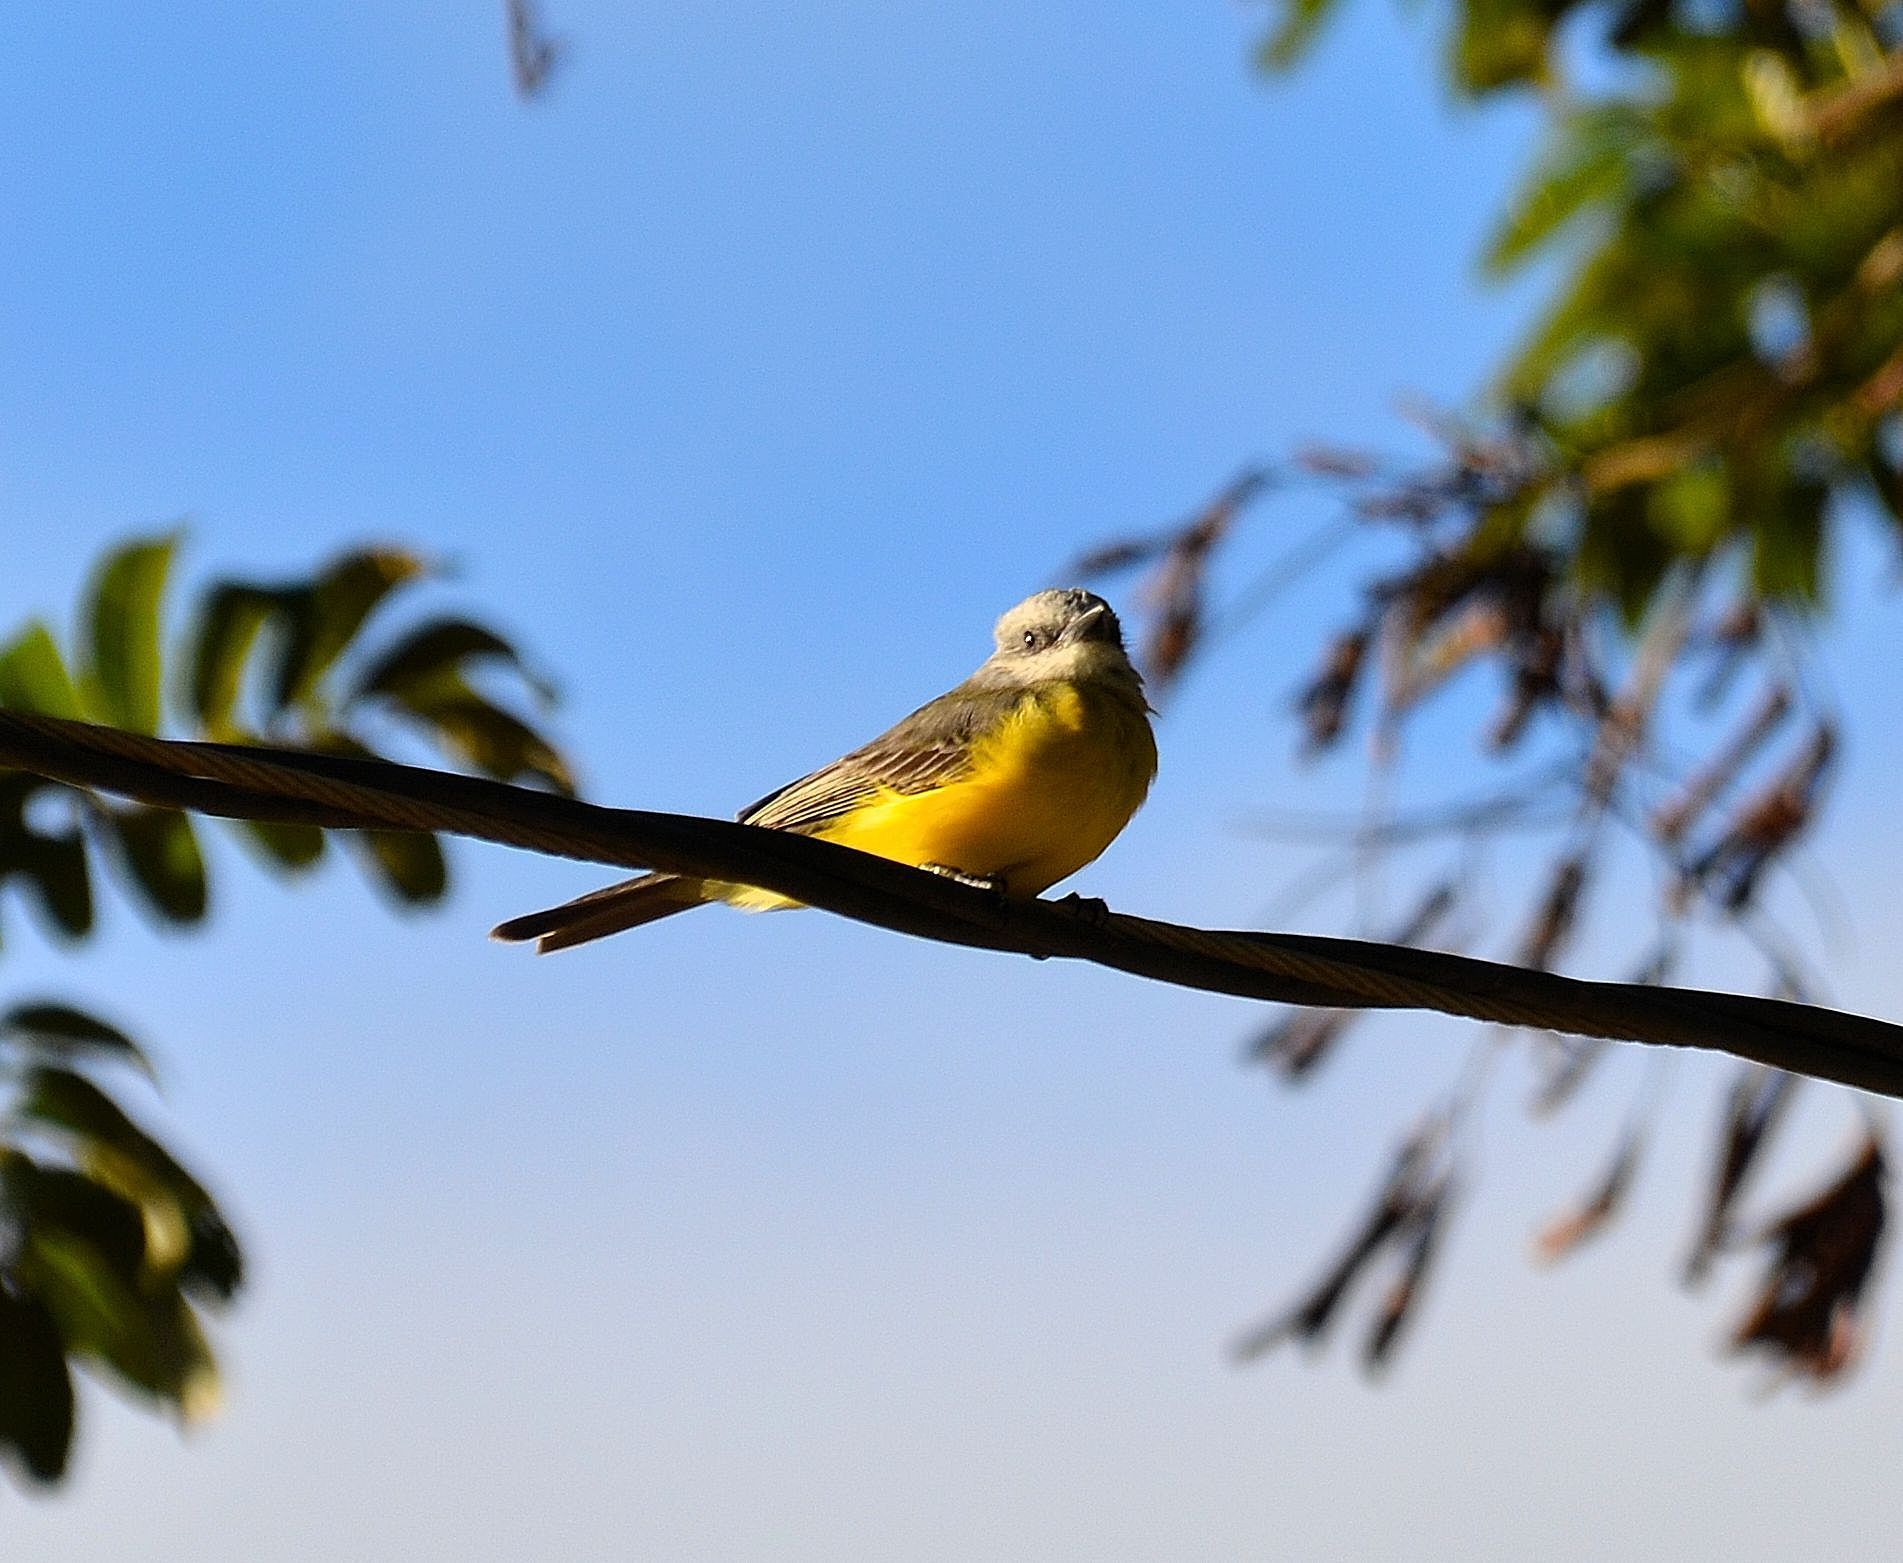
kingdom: Animalia
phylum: Chordata
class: Aves
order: Passeriformes
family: Tyrannidae
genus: Tyrannus
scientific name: Tyrannus melancholicus
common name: Tropical kingbird
